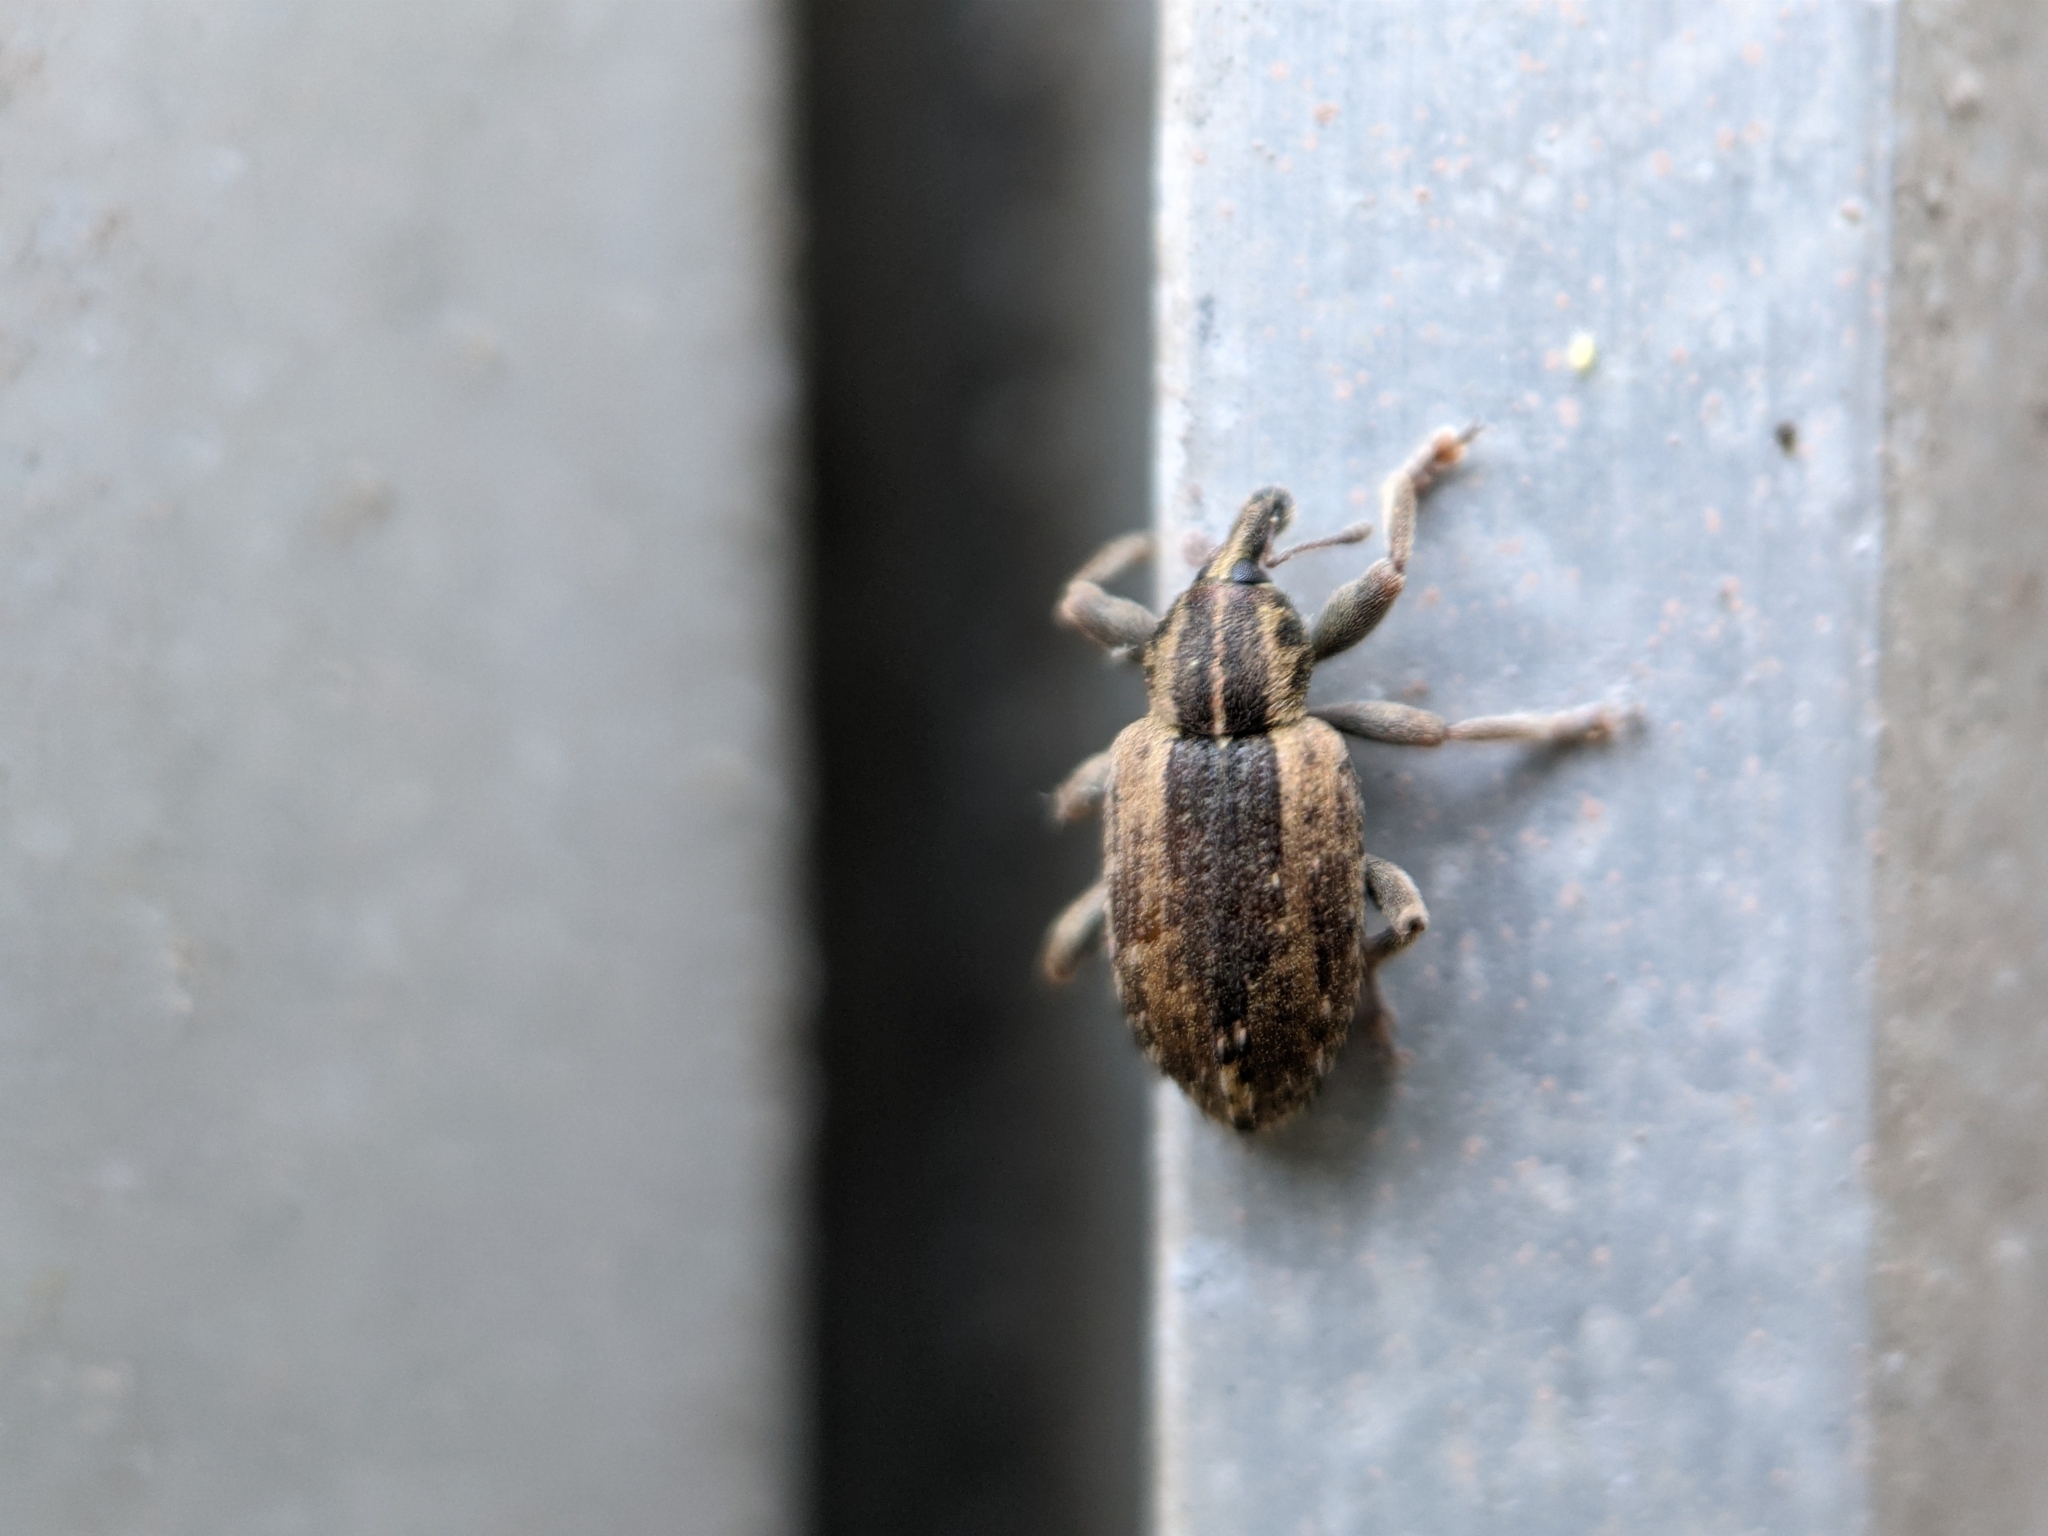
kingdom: Animalia
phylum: Arthropoda
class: Insecta
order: Coleoptera
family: Curculionidae
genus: Hypera
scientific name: Hypera postica
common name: Weevil
